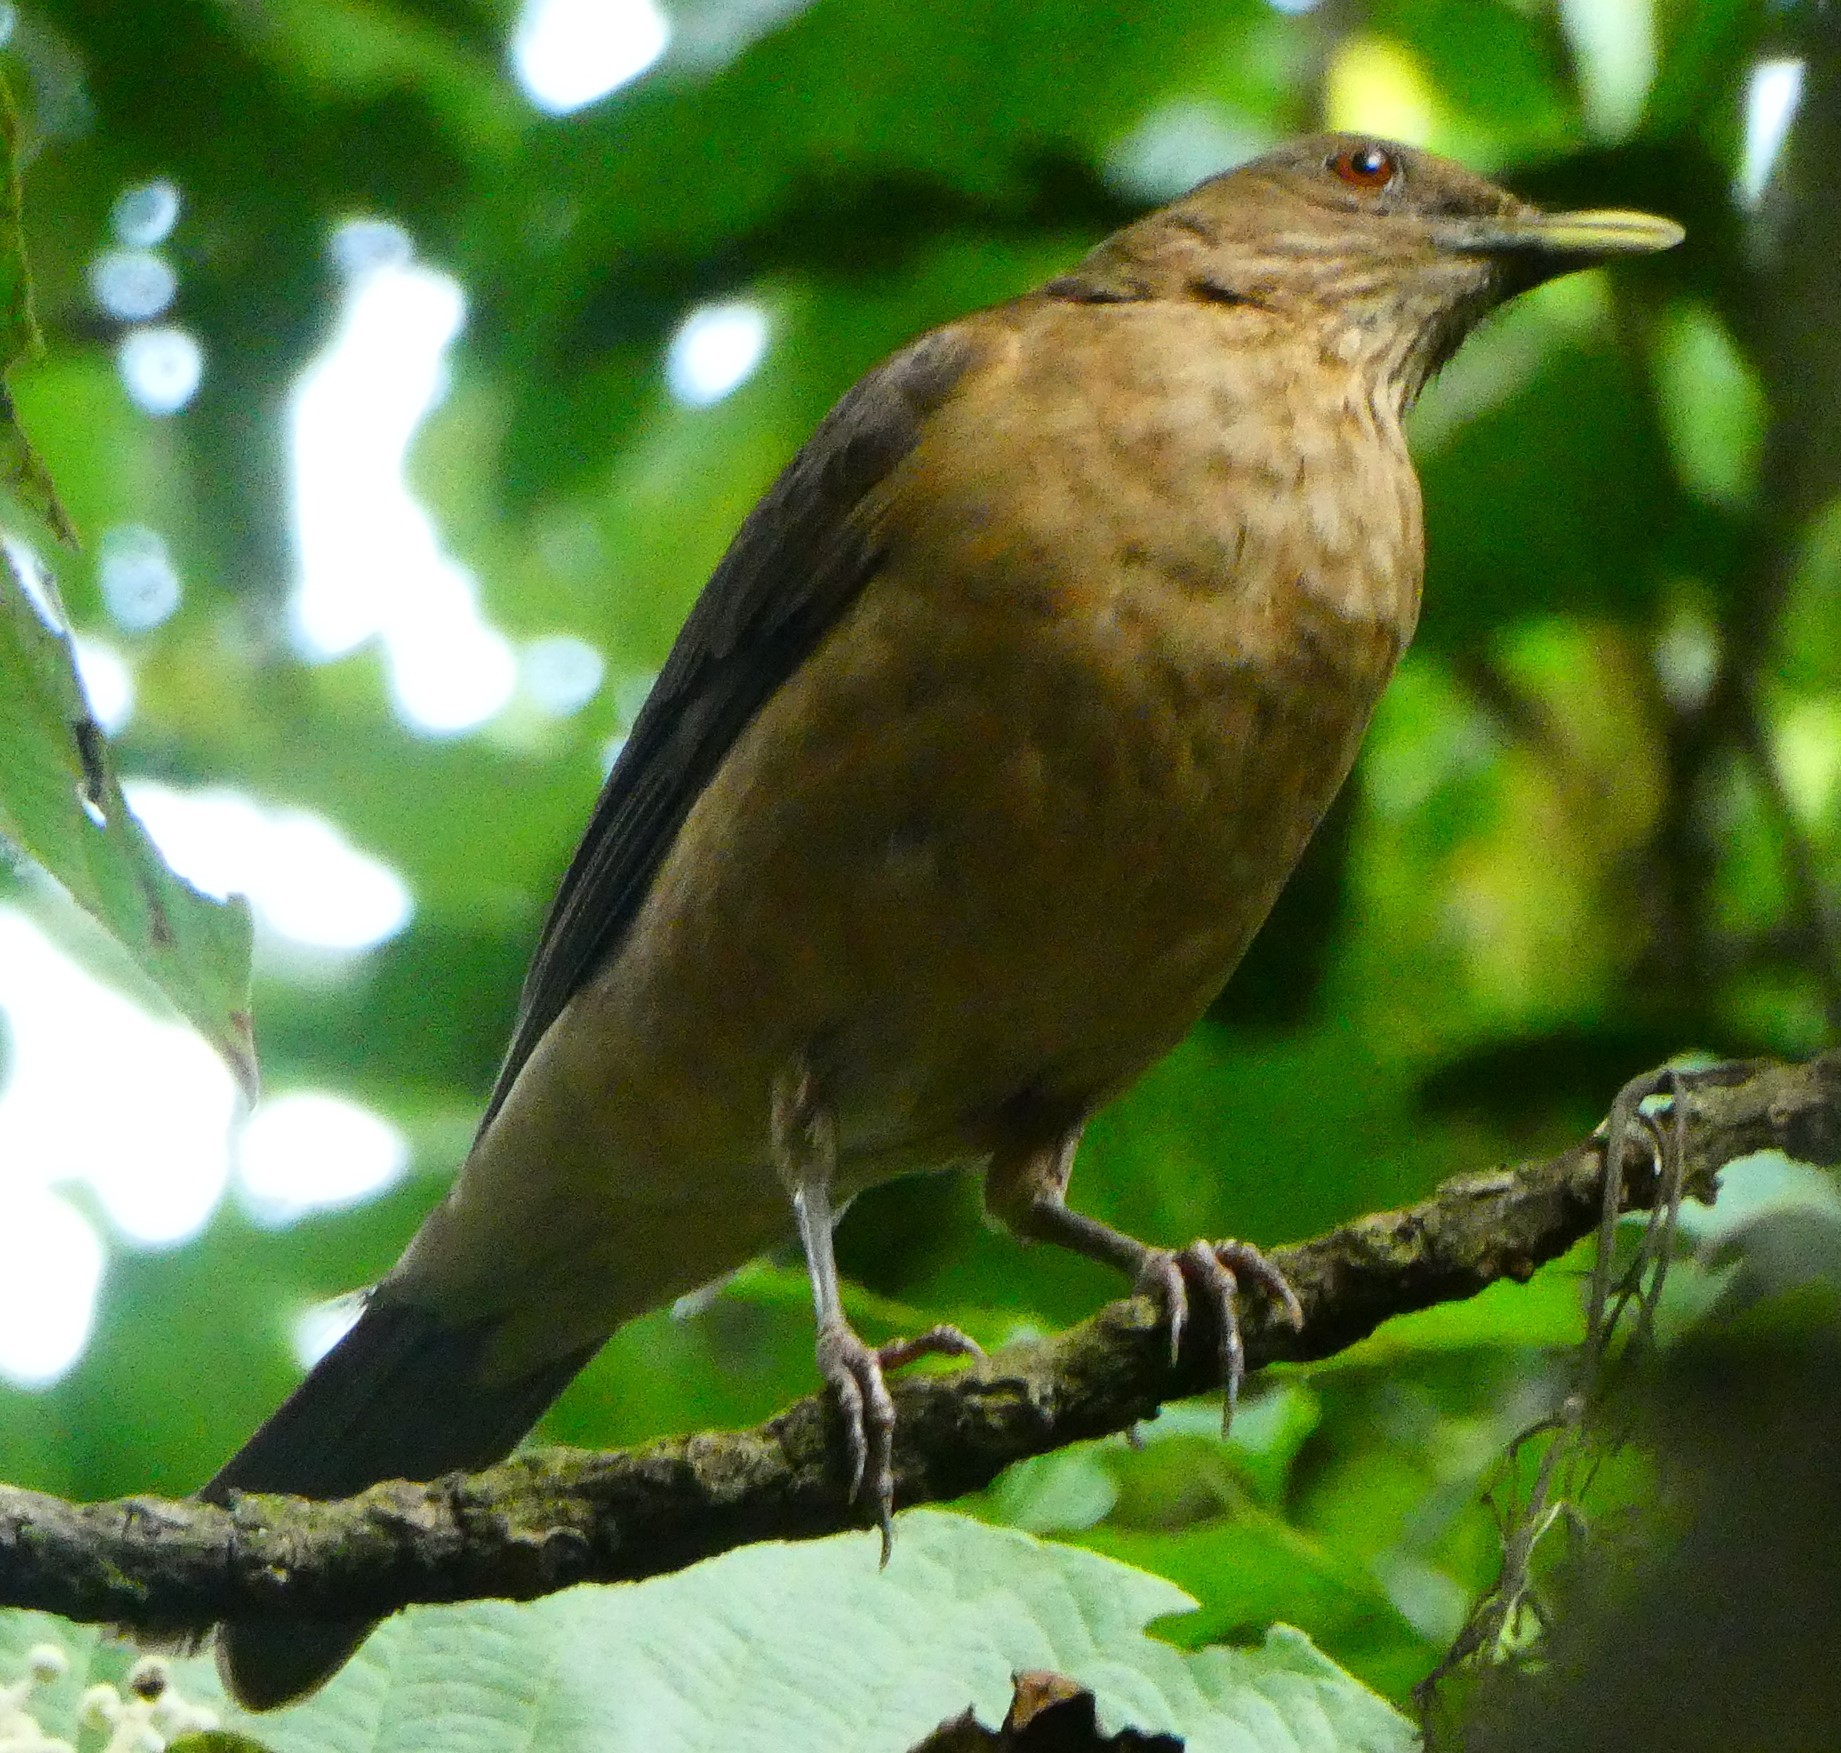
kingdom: Animalia
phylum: Chordata
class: Aves
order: Passeriformes
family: Turdidae
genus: Turdus
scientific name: Turdus grayi
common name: Clay-colored thrush
